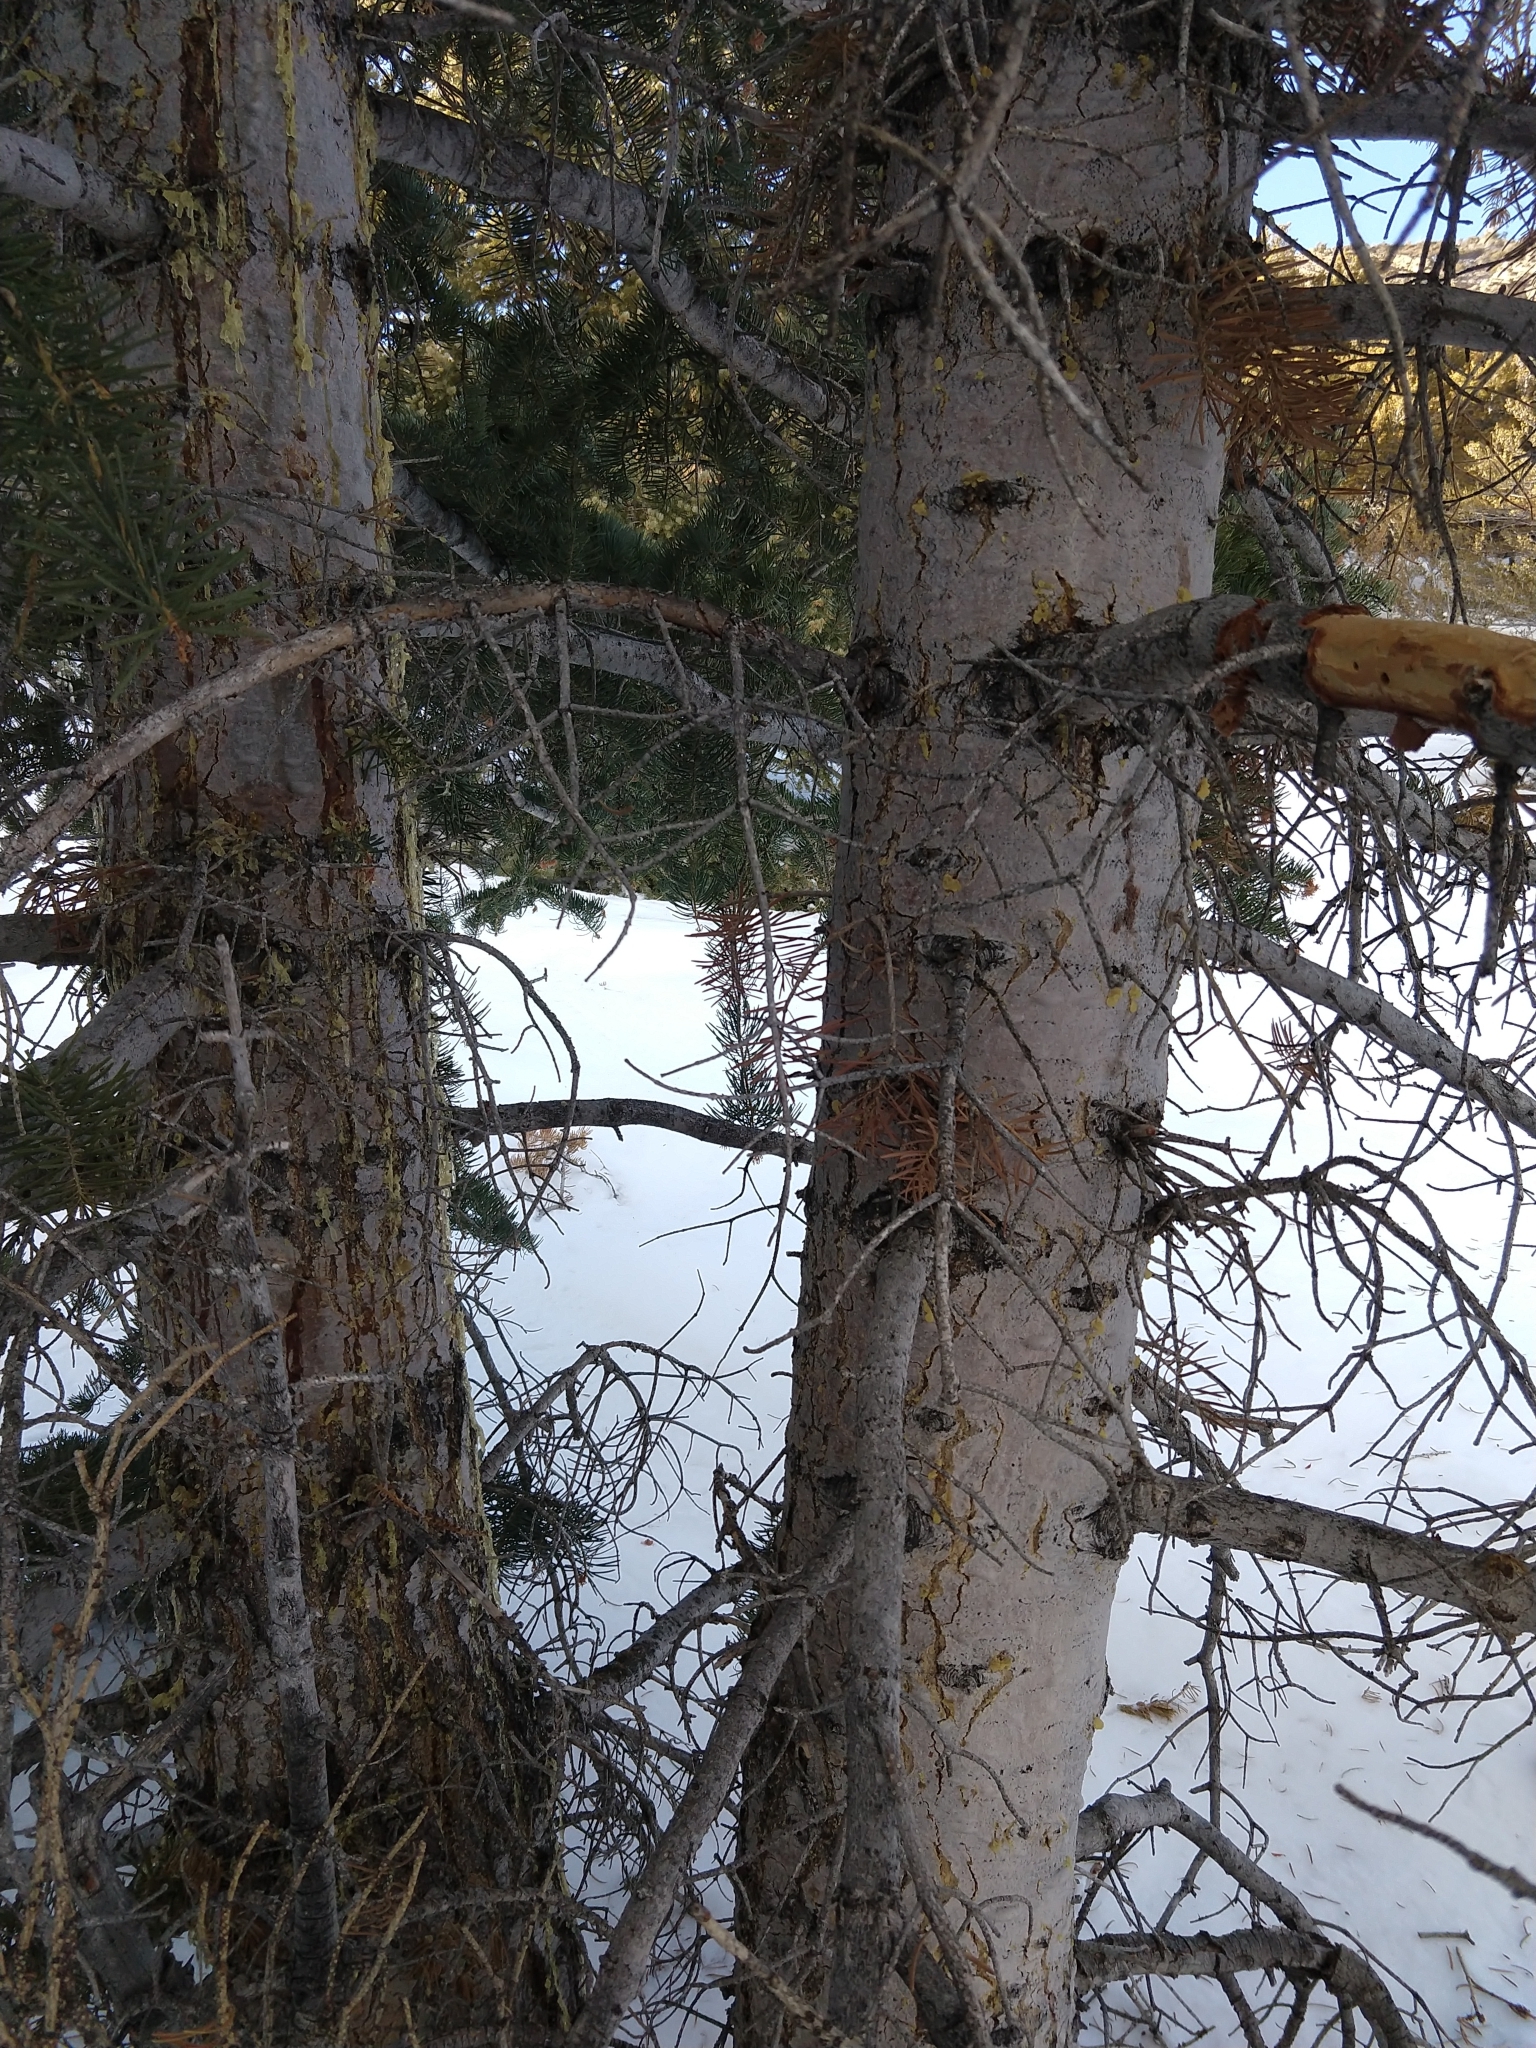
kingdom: Plantae
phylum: Tracheophyta
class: Pinopsida
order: Pinales
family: Pinaceae
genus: Abies
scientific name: Abies concolor
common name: Colorado fir
